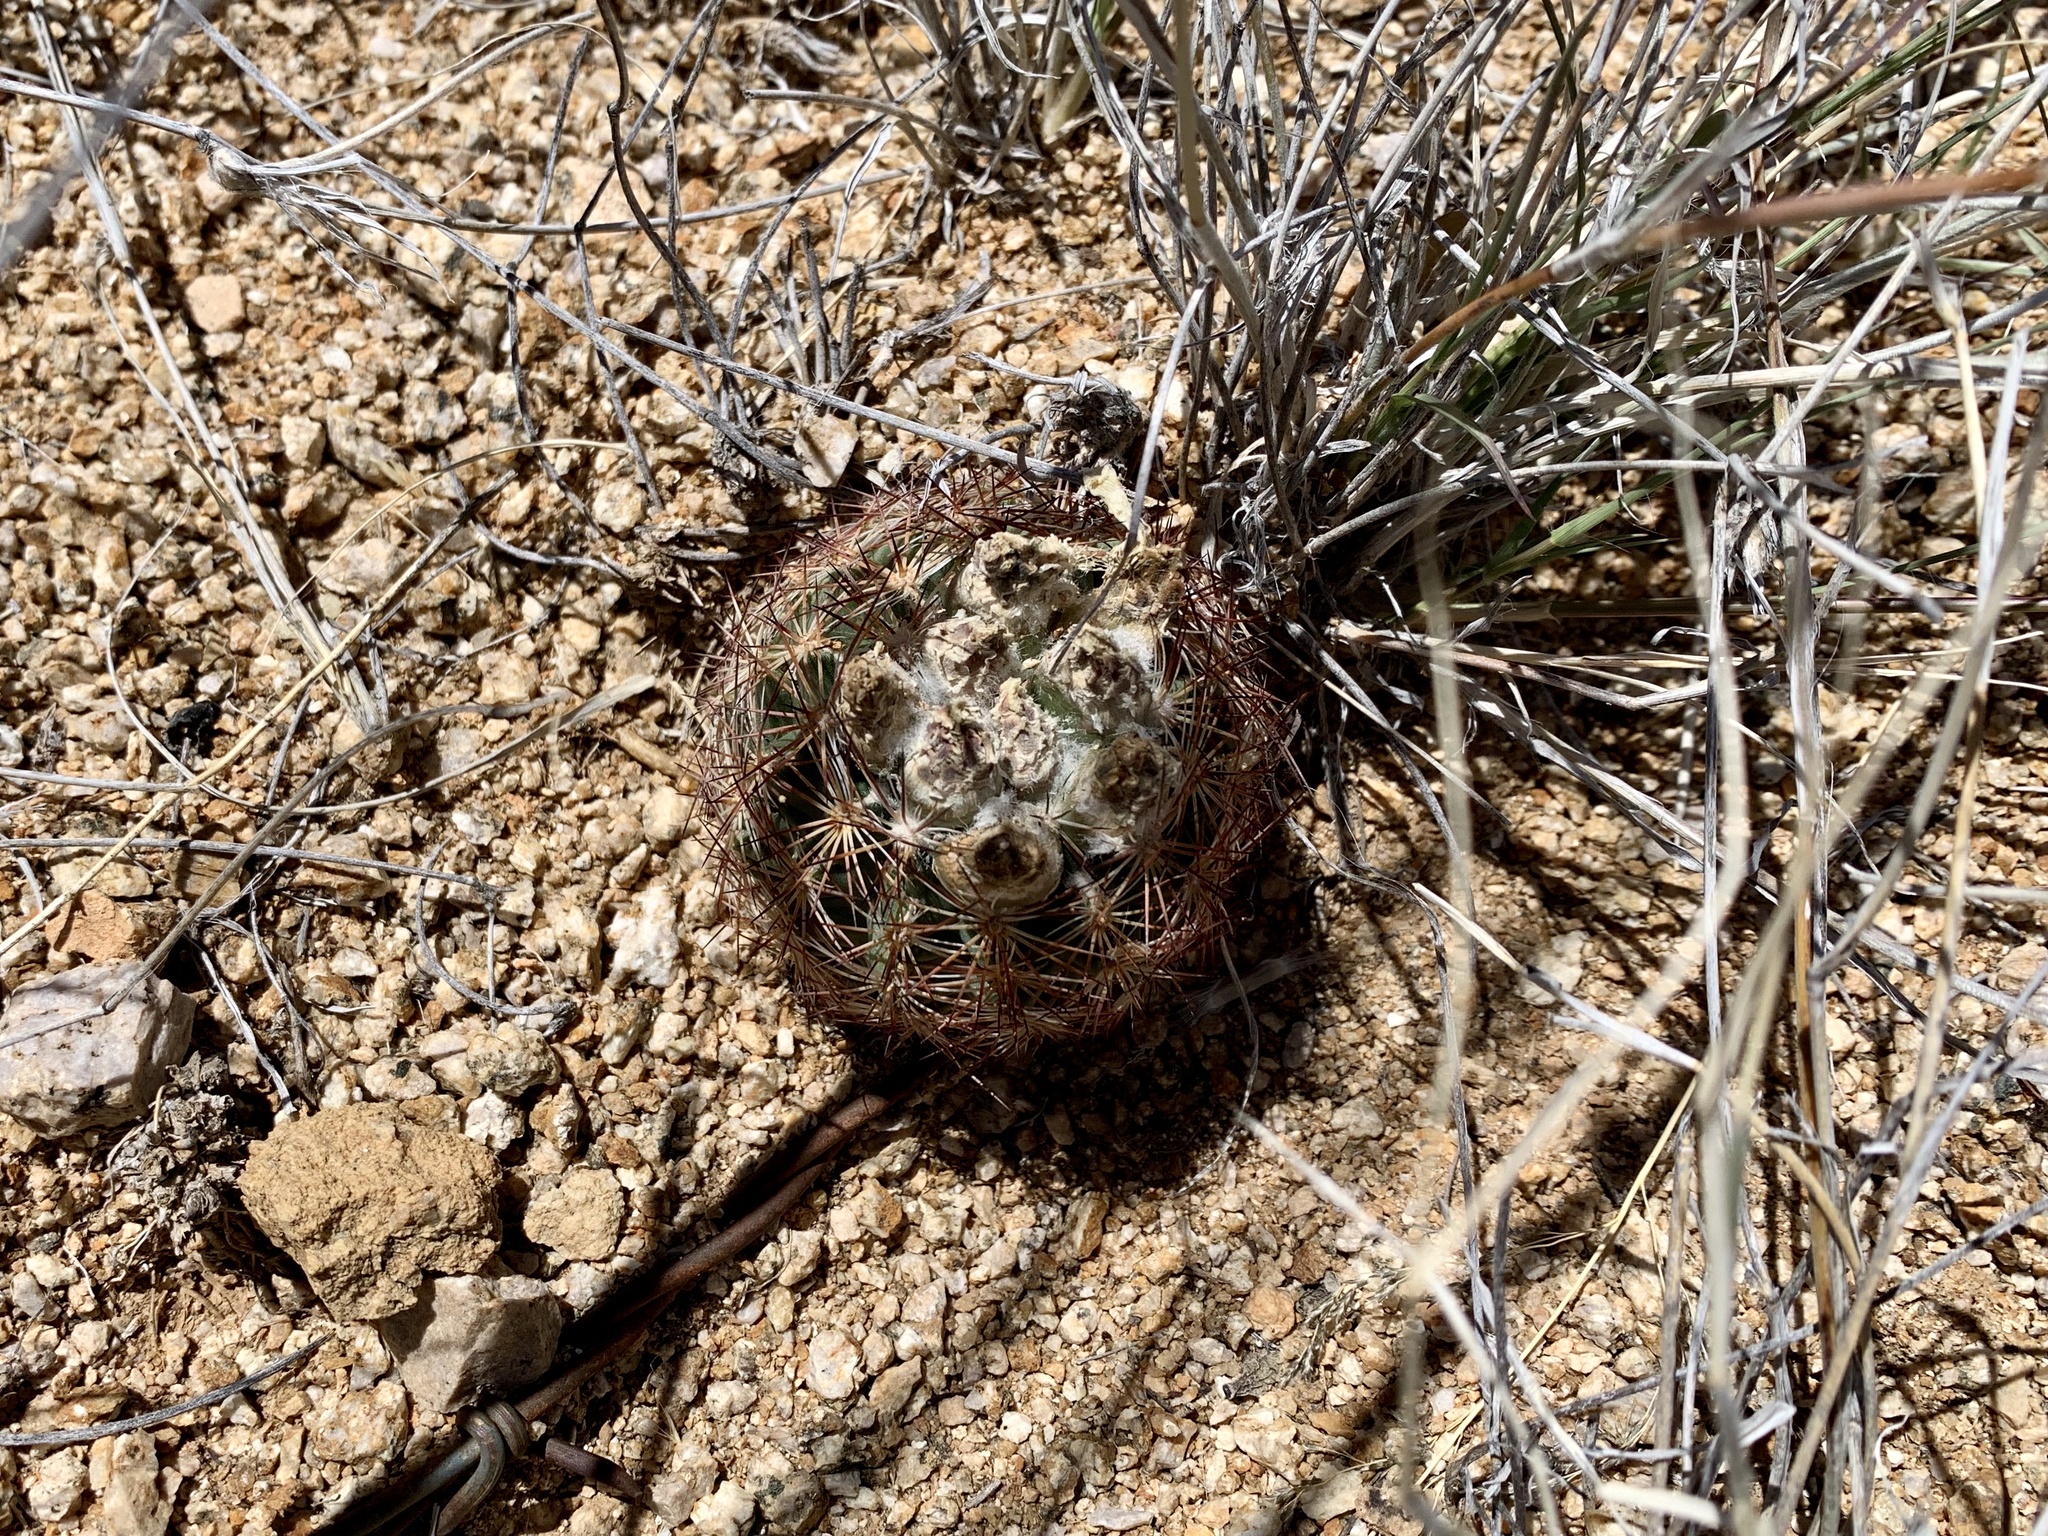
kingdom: Plantae
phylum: Tracheophyta
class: Magnoliopsida
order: Caryophyllales
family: Cactaceae
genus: Sclerocactus
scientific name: Sclerocactus intertextus
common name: White fish-hook cactus
